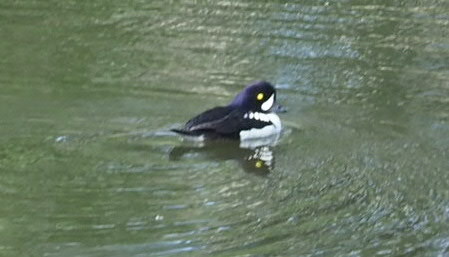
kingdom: Animalia
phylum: Chordata
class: Aves
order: Anseriformes
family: Anatidae
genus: Bucephala
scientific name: Bucephala islandica
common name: Barrow's goldeneye
